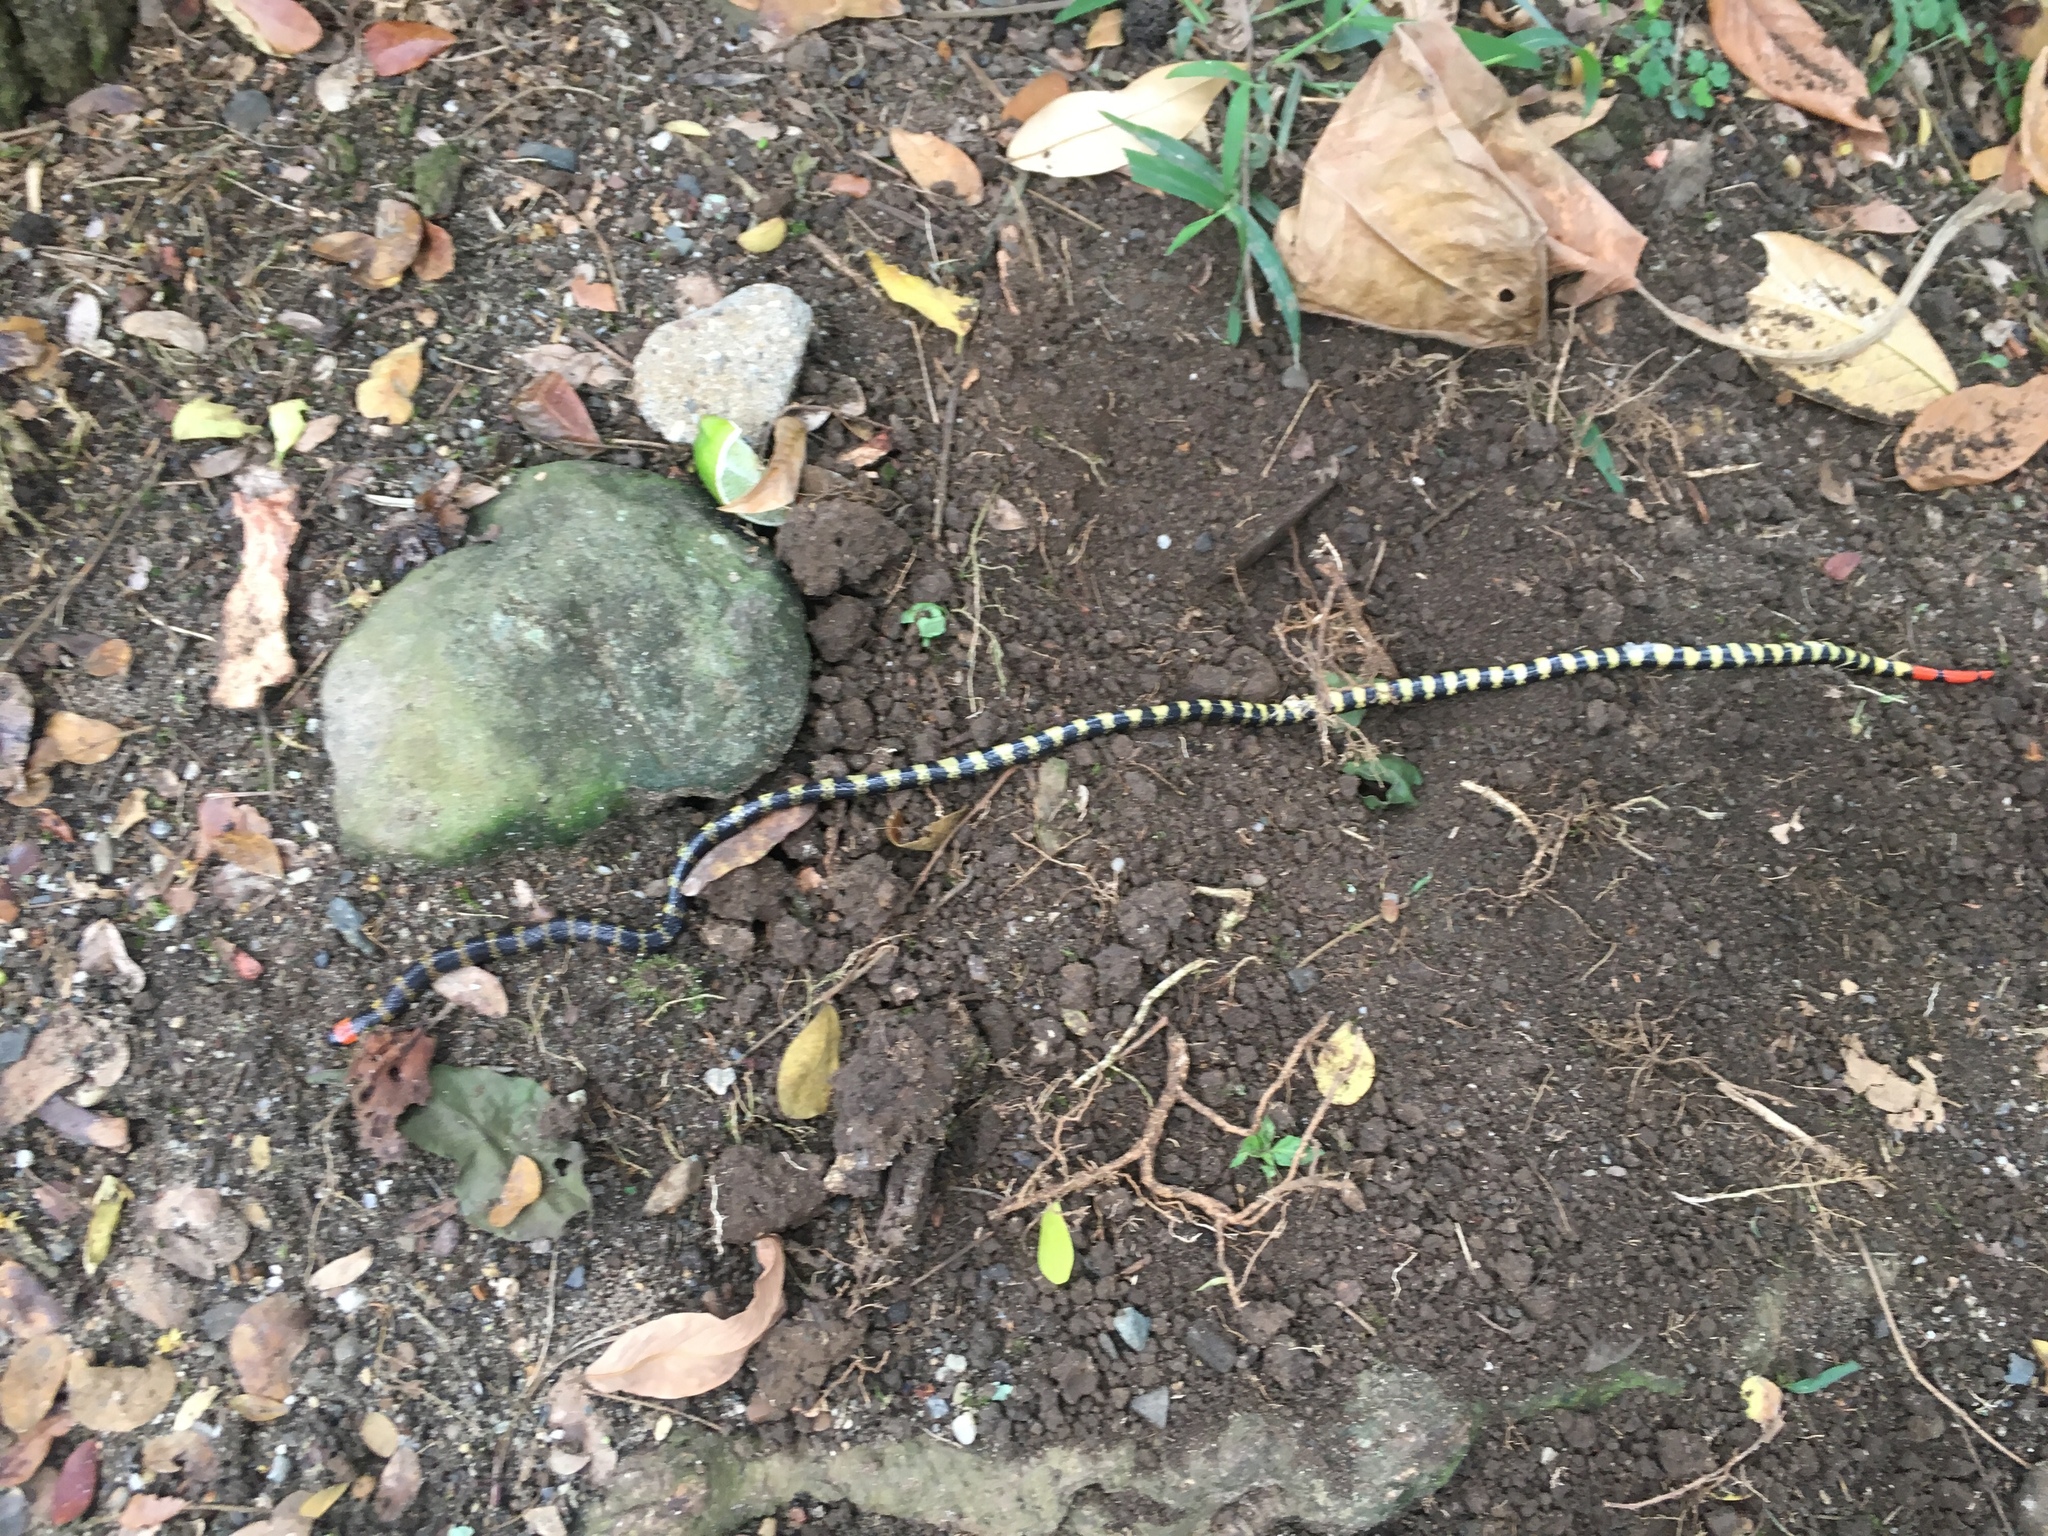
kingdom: Animalia
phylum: Chordata
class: Squamata
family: Elapidae
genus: Micrurus
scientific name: Micrurus mipartitus
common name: Redtail coral snake
